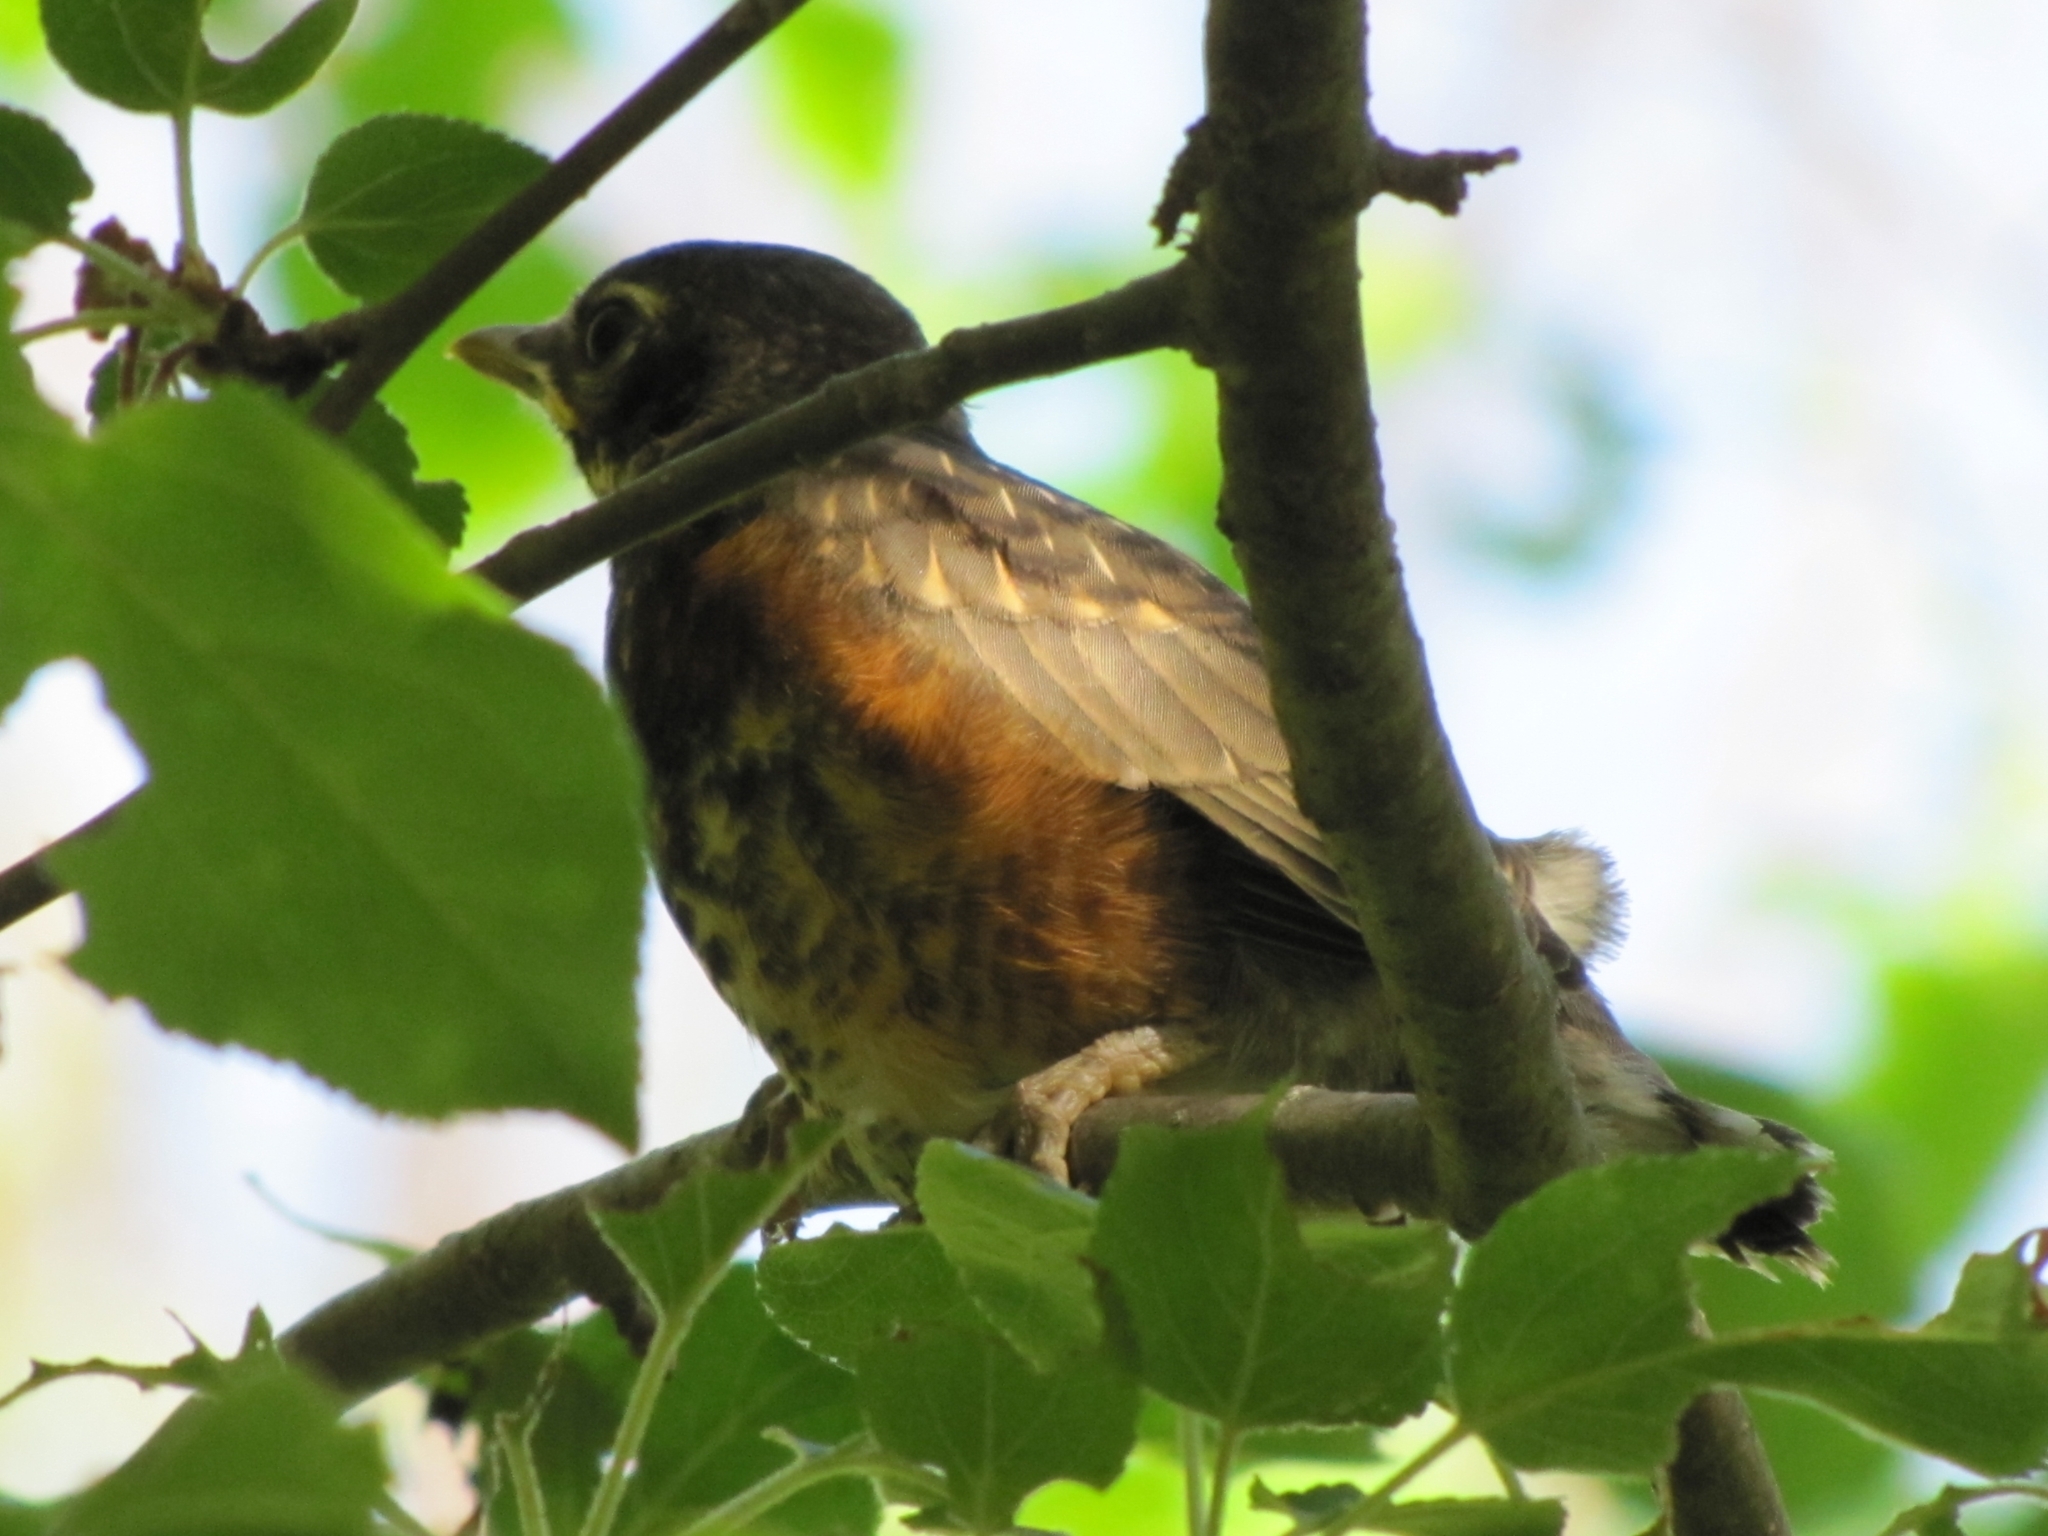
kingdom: Animalia
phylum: Chordata
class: Aves
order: Passeriformes
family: Turdidae
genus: Turdus
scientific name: Turdus migratorius
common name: American robin
